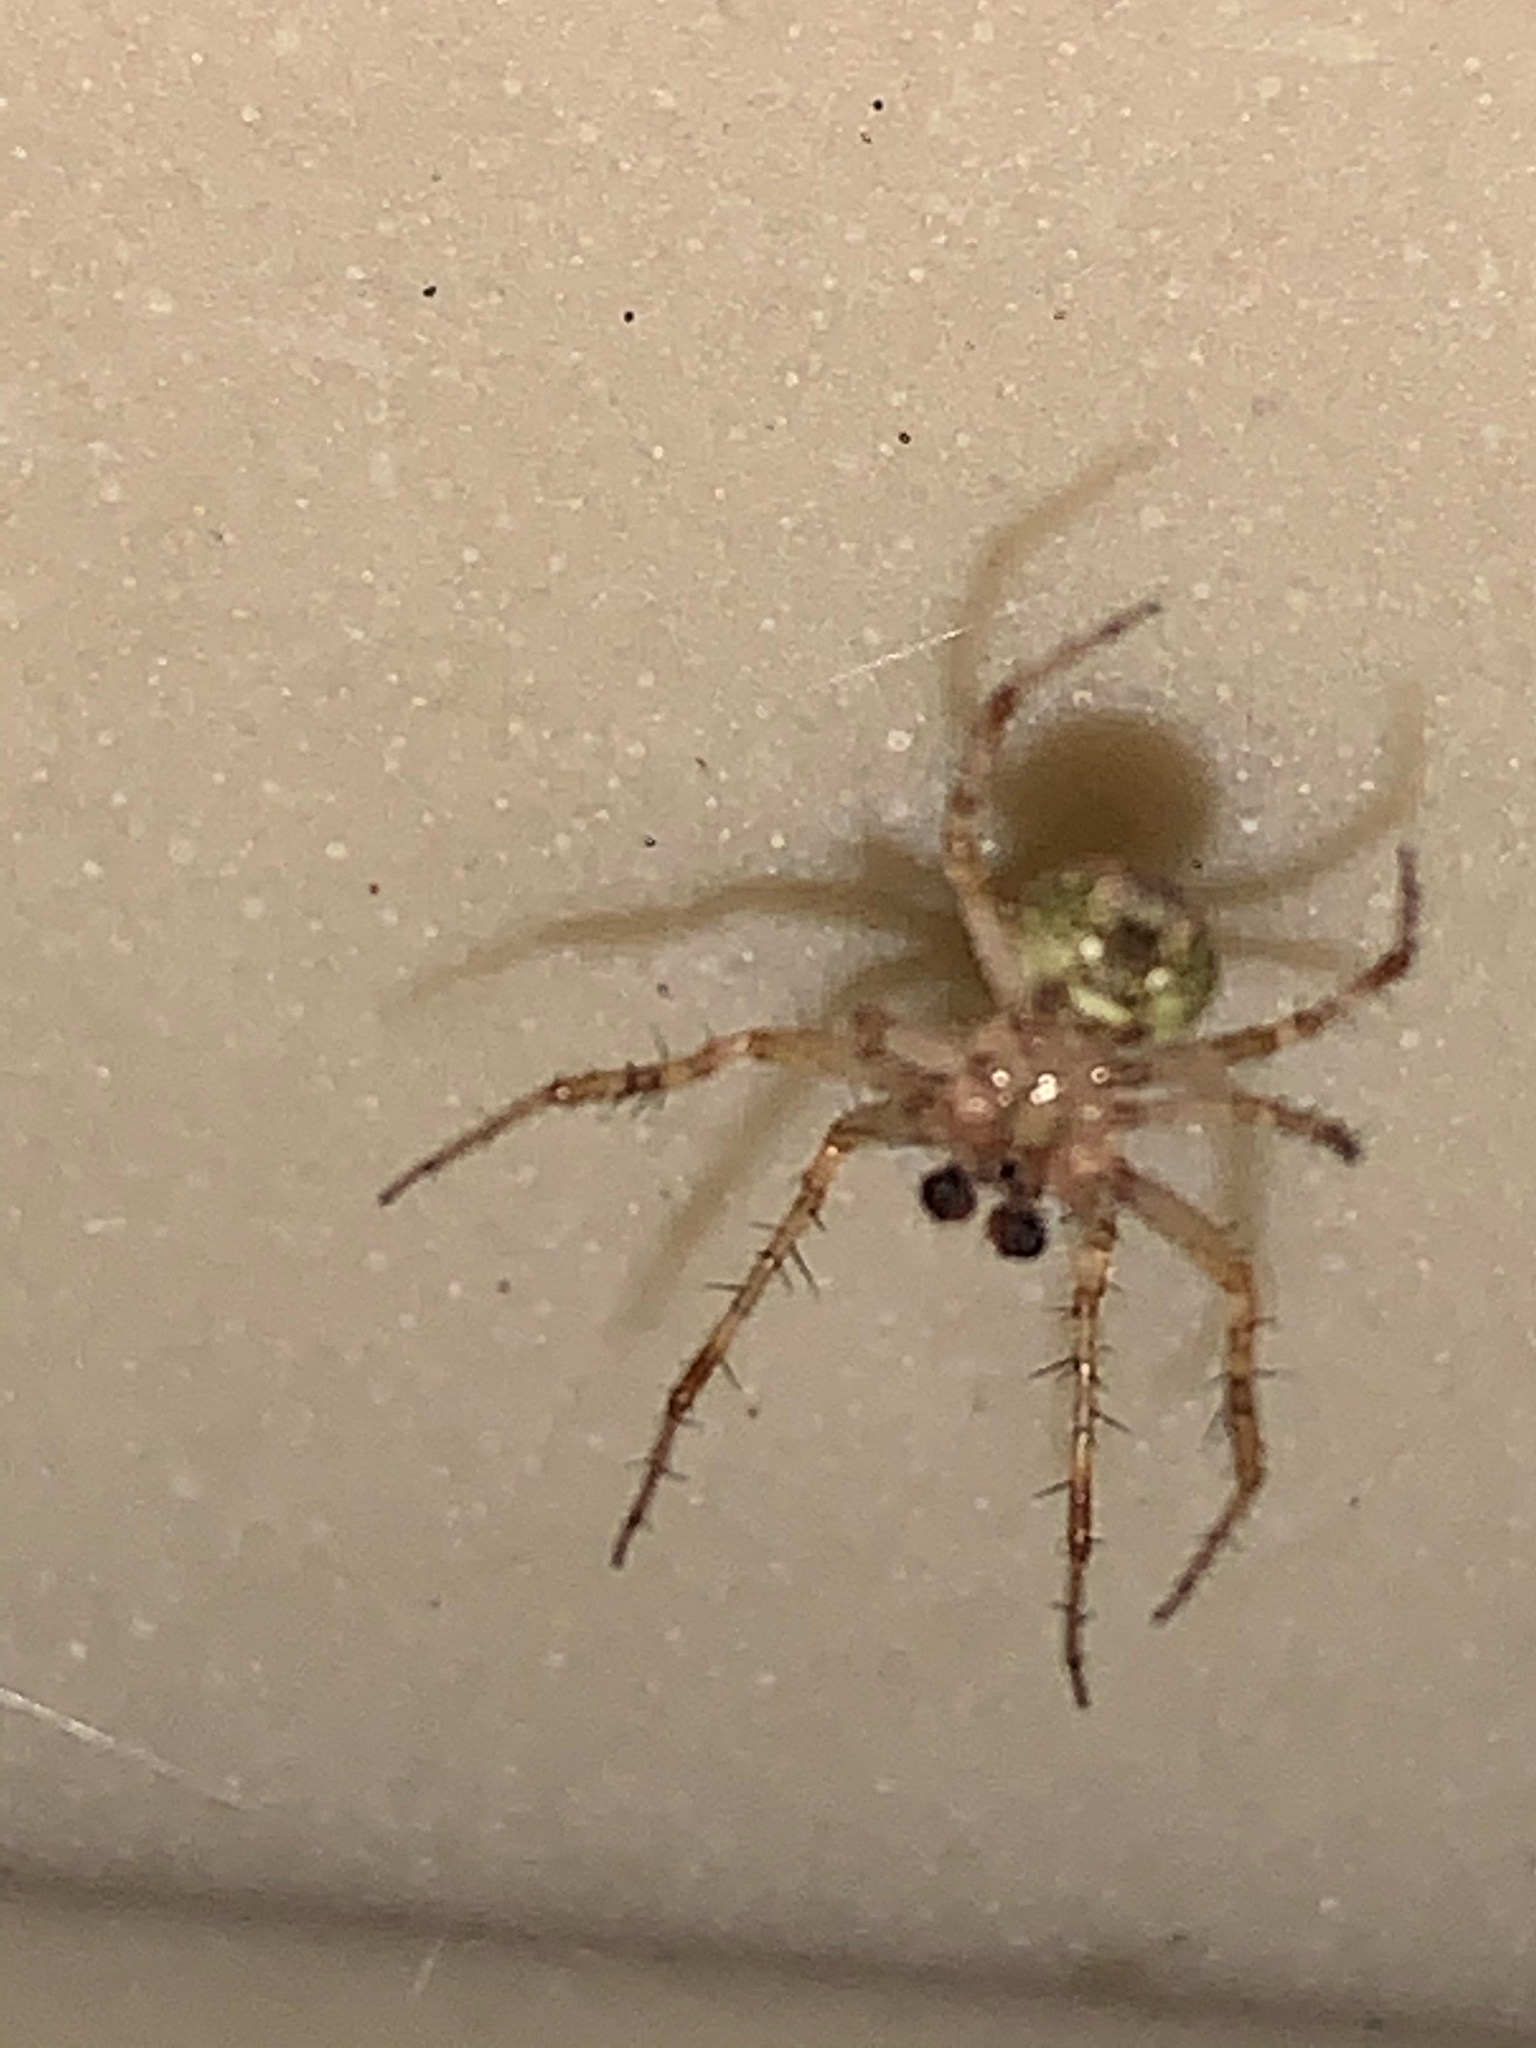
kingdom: Animalia
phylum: Arthropoda
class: Arachnida
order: Araneae
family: Araneidae
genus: Araneus
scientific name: Araneus pegnia
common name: Orb weavers
